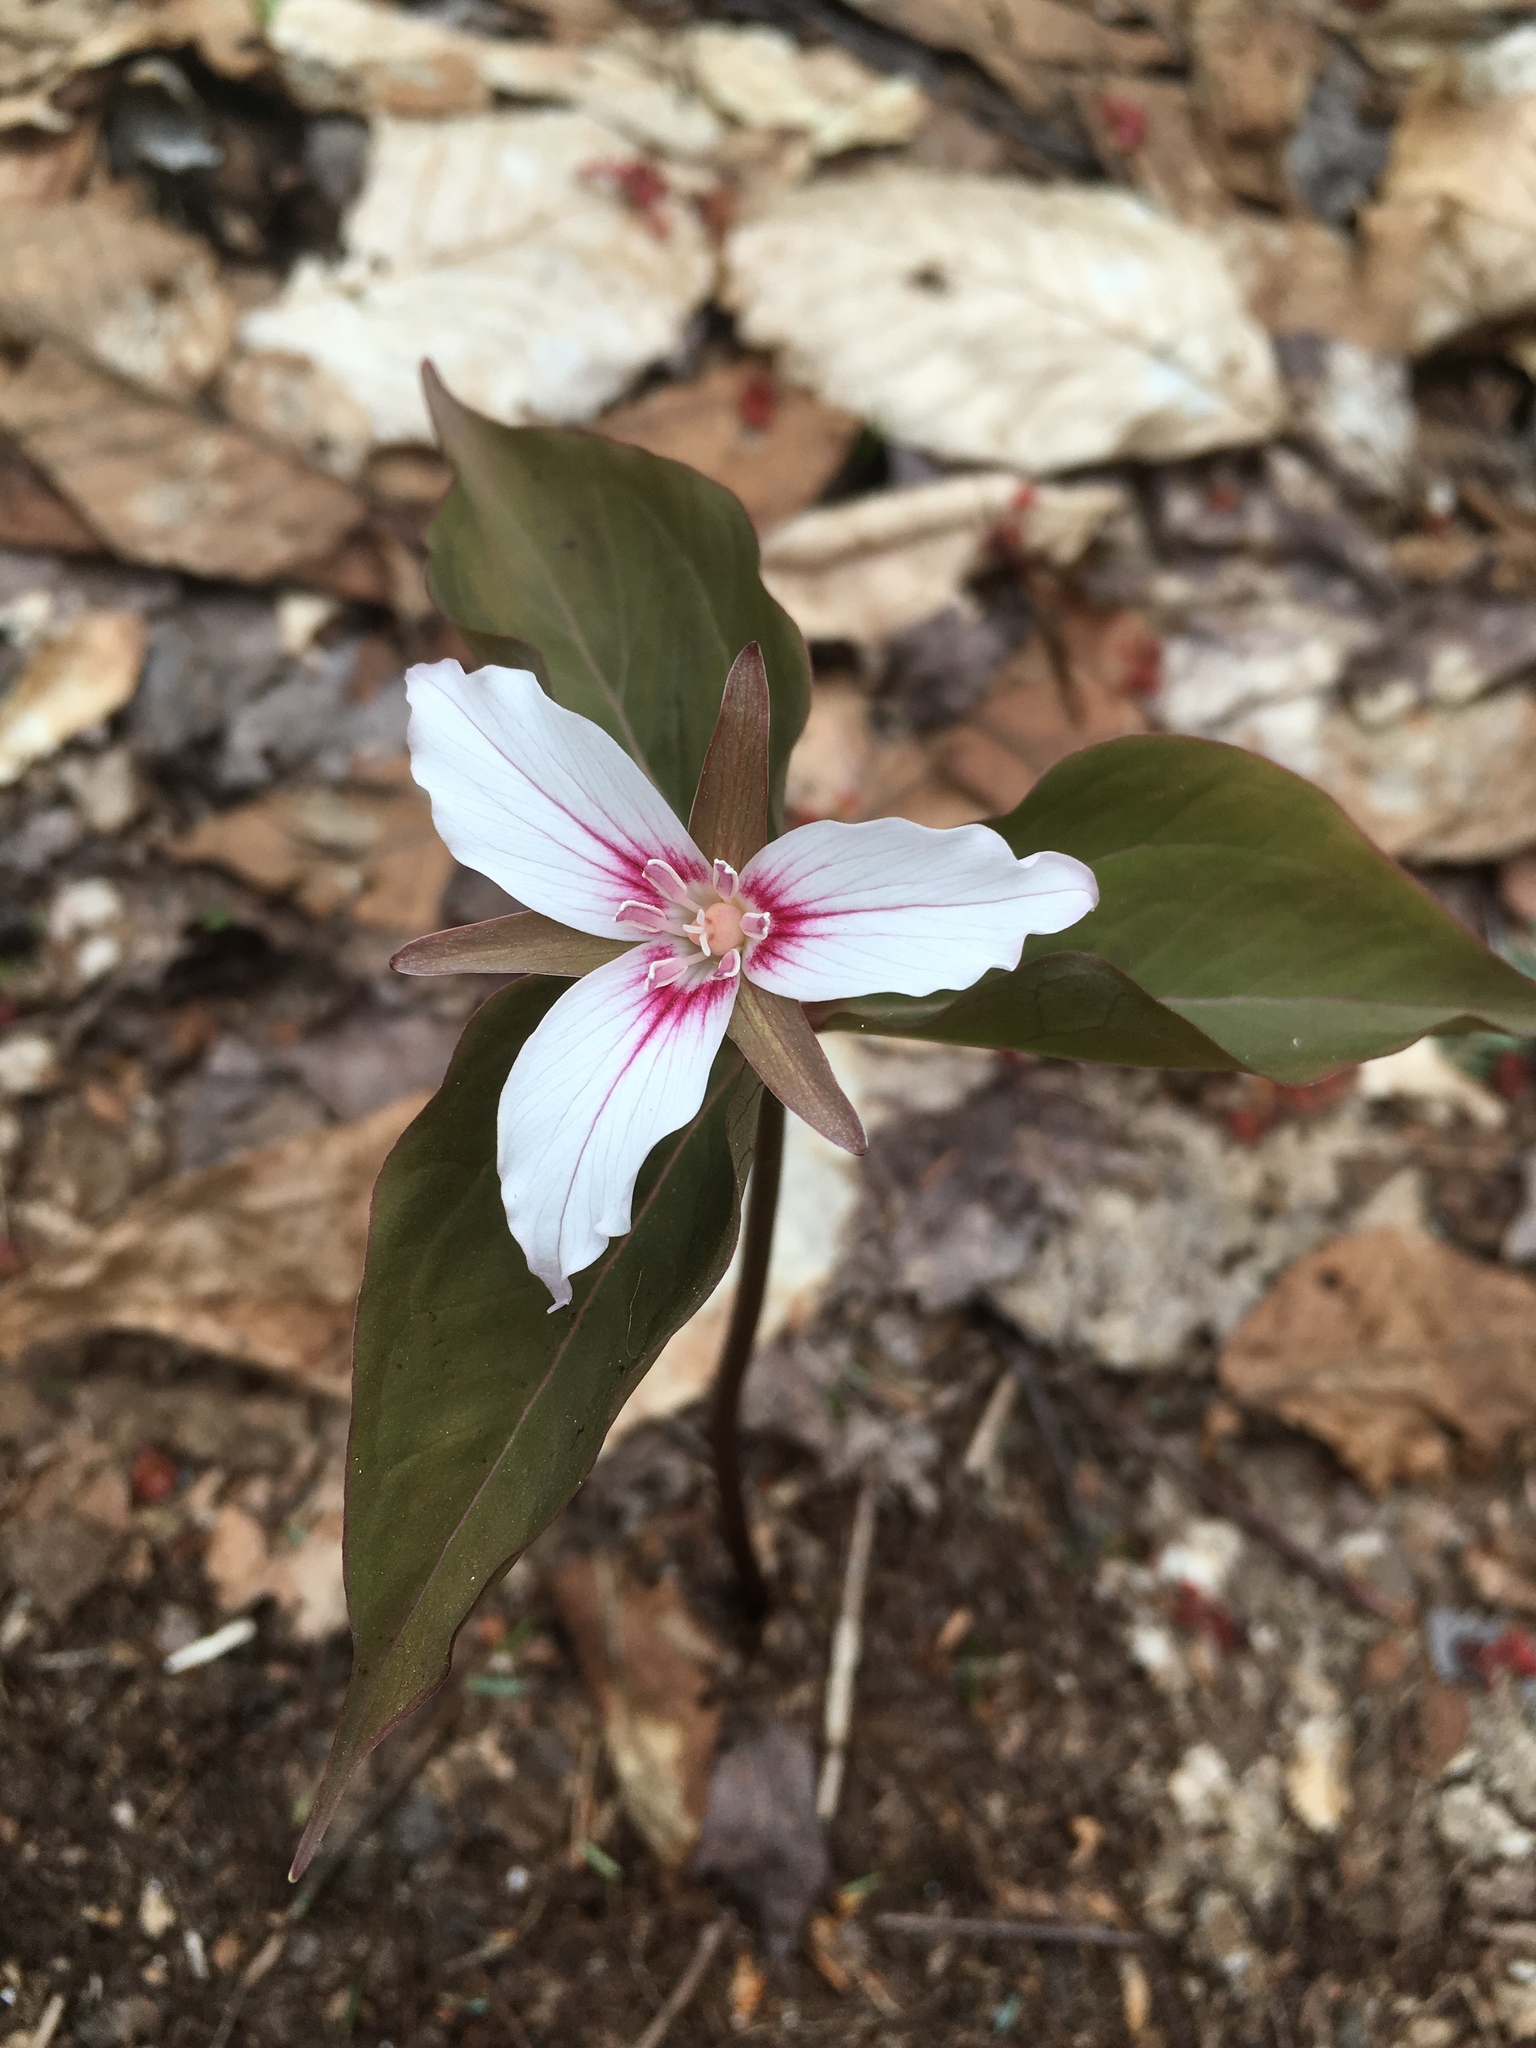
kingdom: Plantae
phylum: Tracheophyta
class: Liliopsida
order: Liliales
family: Melanthiaceae
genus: Trillium
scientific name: Trillium undulatum
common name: Paint trillium
